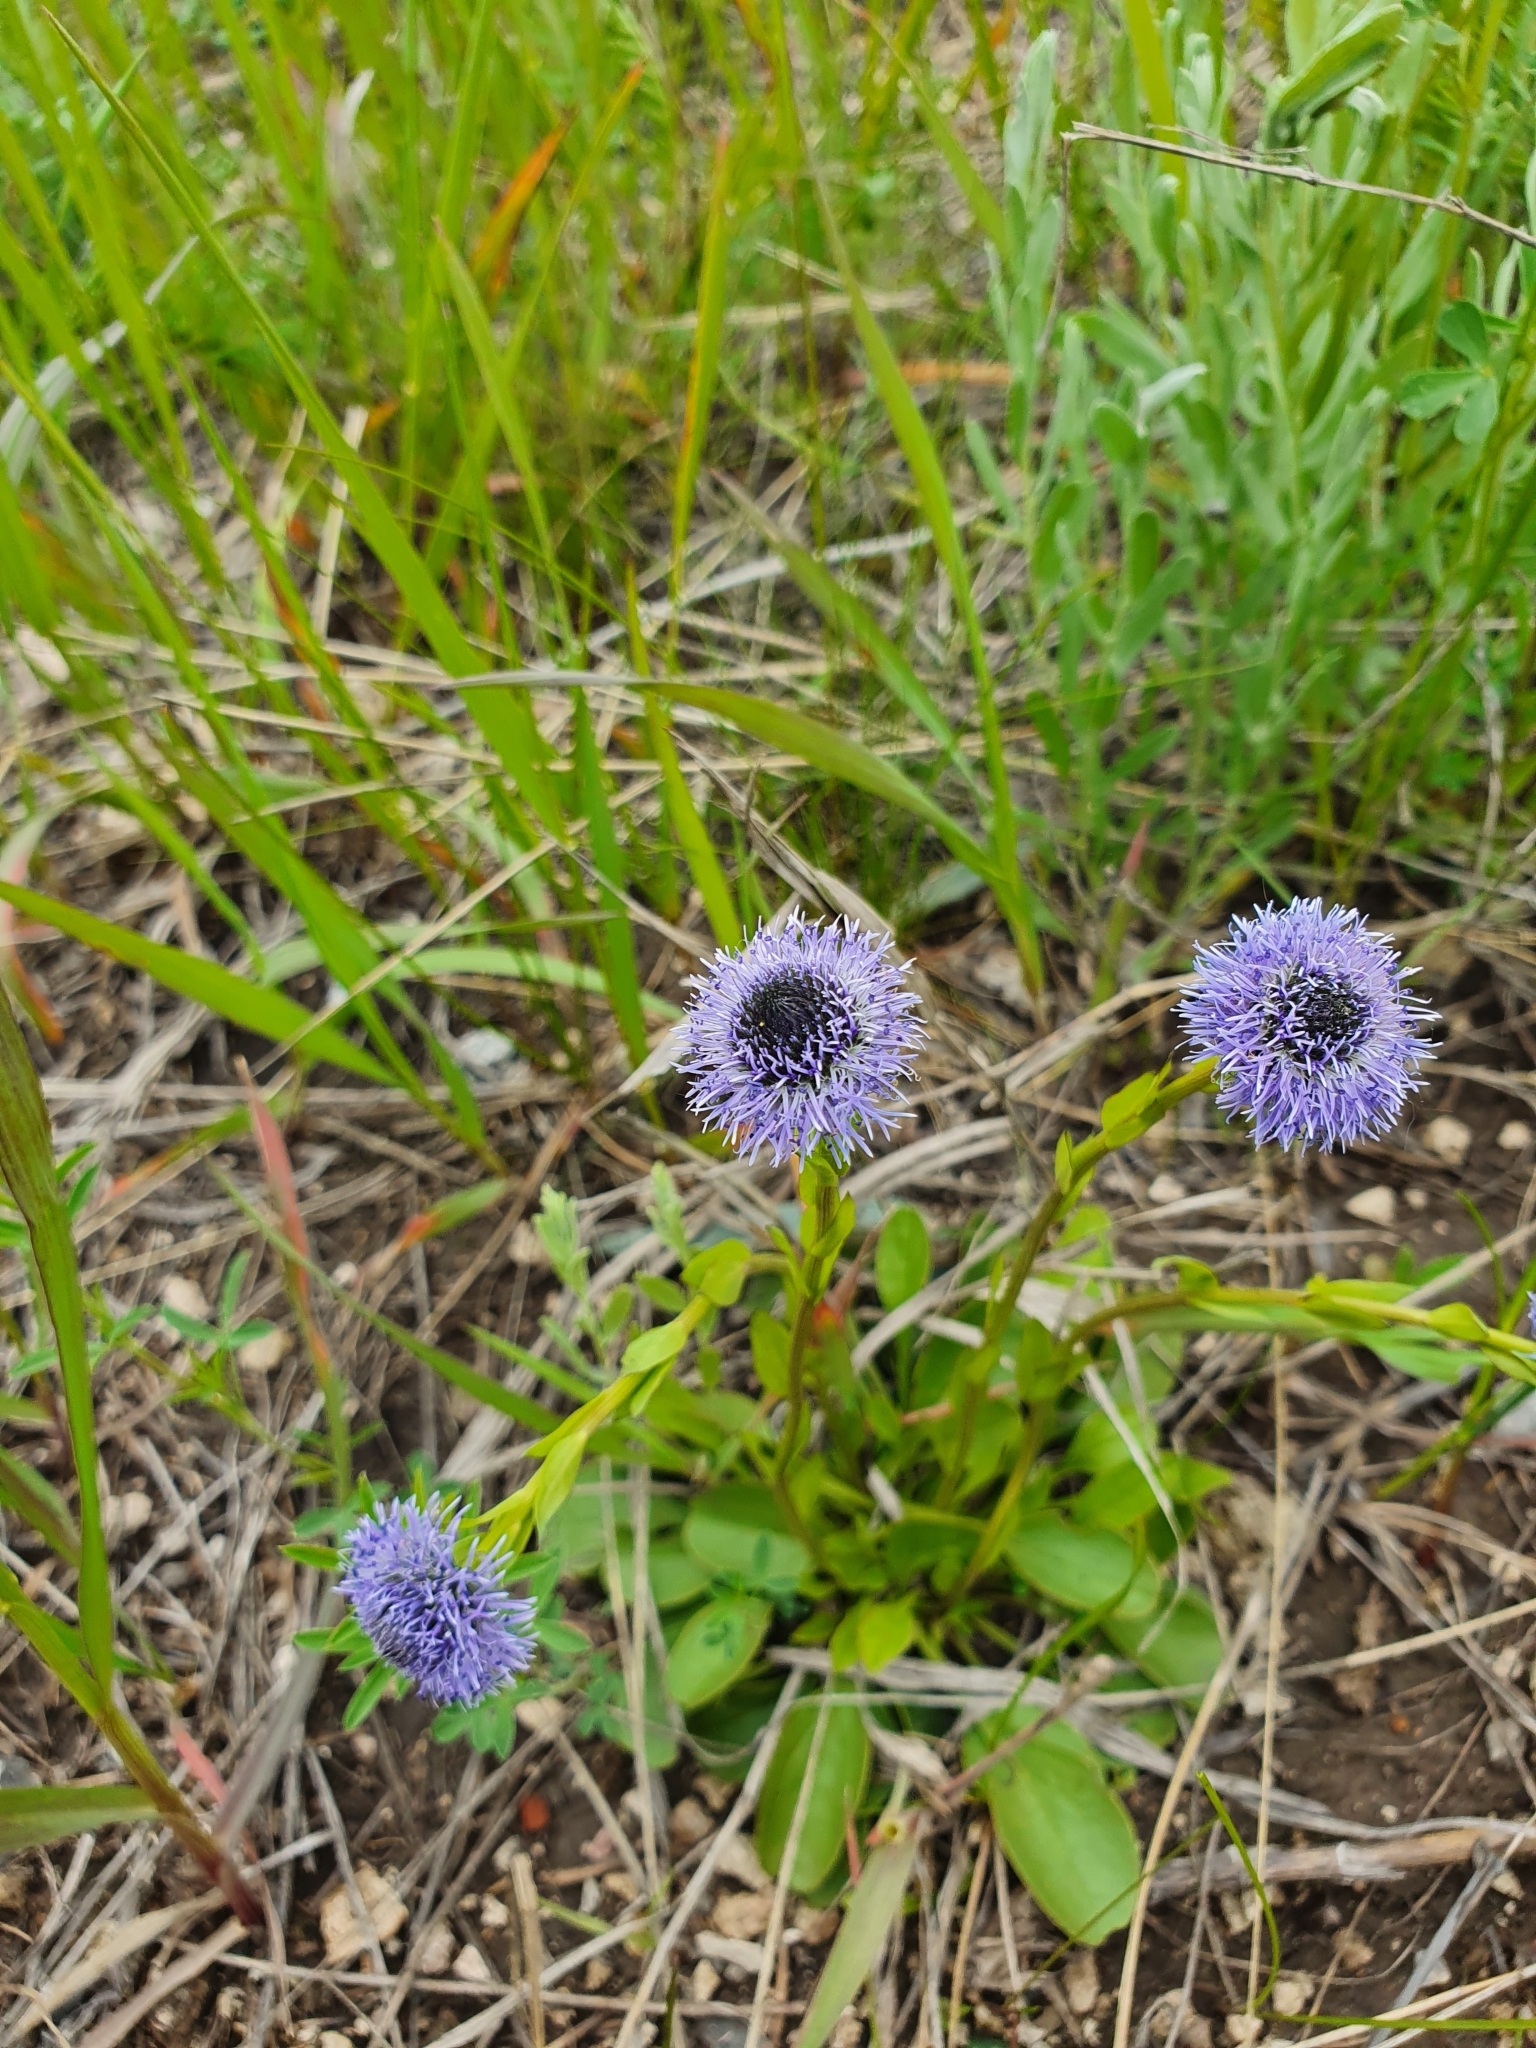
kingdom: Plantae
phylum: Tracheophyta
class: Magnoliopsida
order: Lamiales
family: Plantaginaceae
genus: Globularia
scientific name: Globularia bisnagarica
